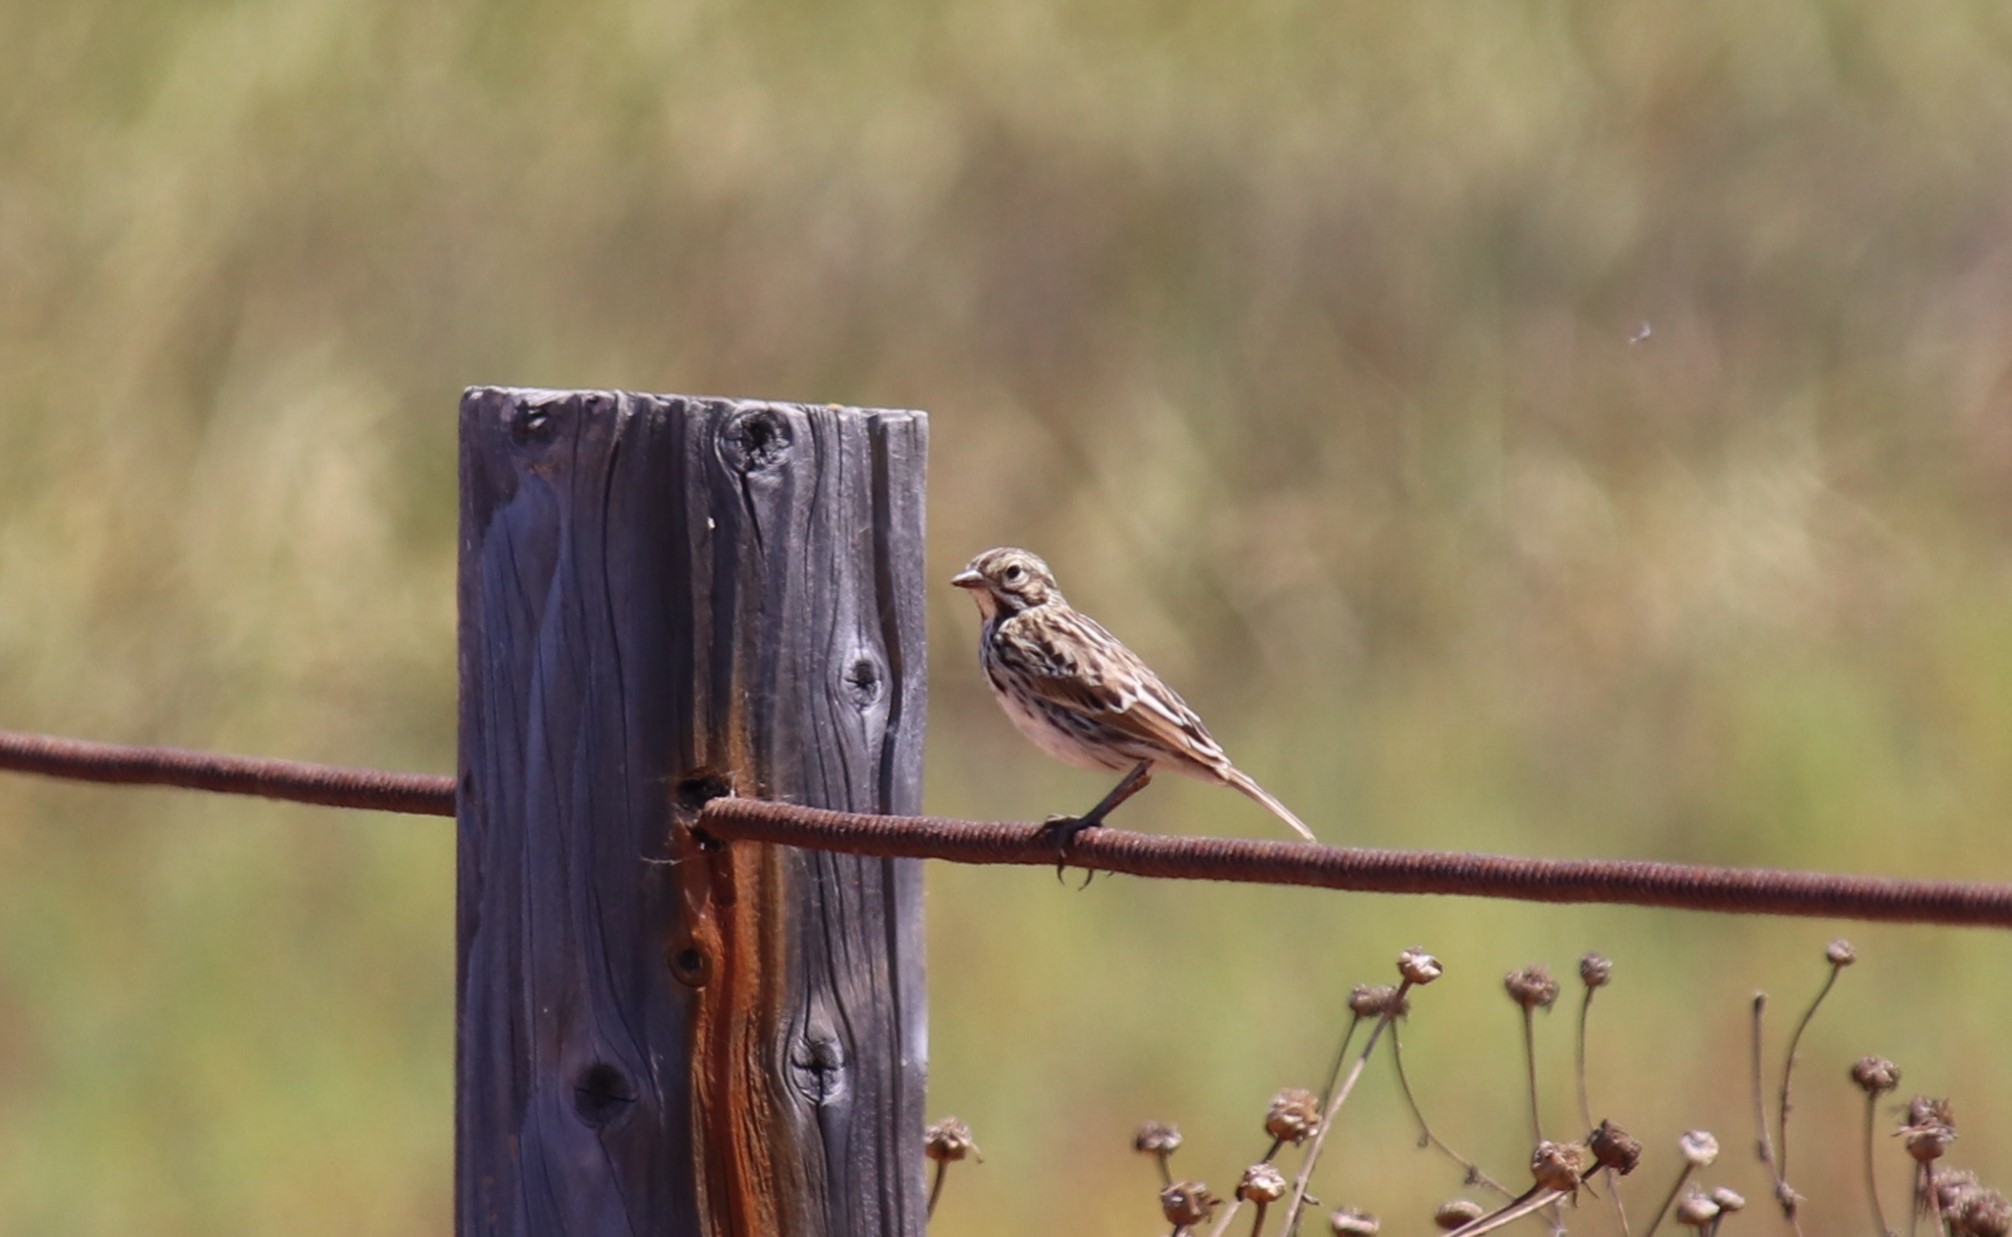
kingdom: Animalia
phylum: Chordata
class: Aves
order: Passeriformes
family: Passerellidae
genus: Passerculus
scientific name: Passerculus sandwichensis
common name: Savannah sparrow
